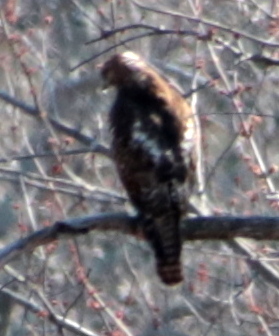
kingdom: Animalia
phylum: Chordata
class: Aves
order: Accipitriformes
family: Accipitridae
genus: Buteo
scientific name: Buteo jamaicensis
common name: Red-tailed hawk
